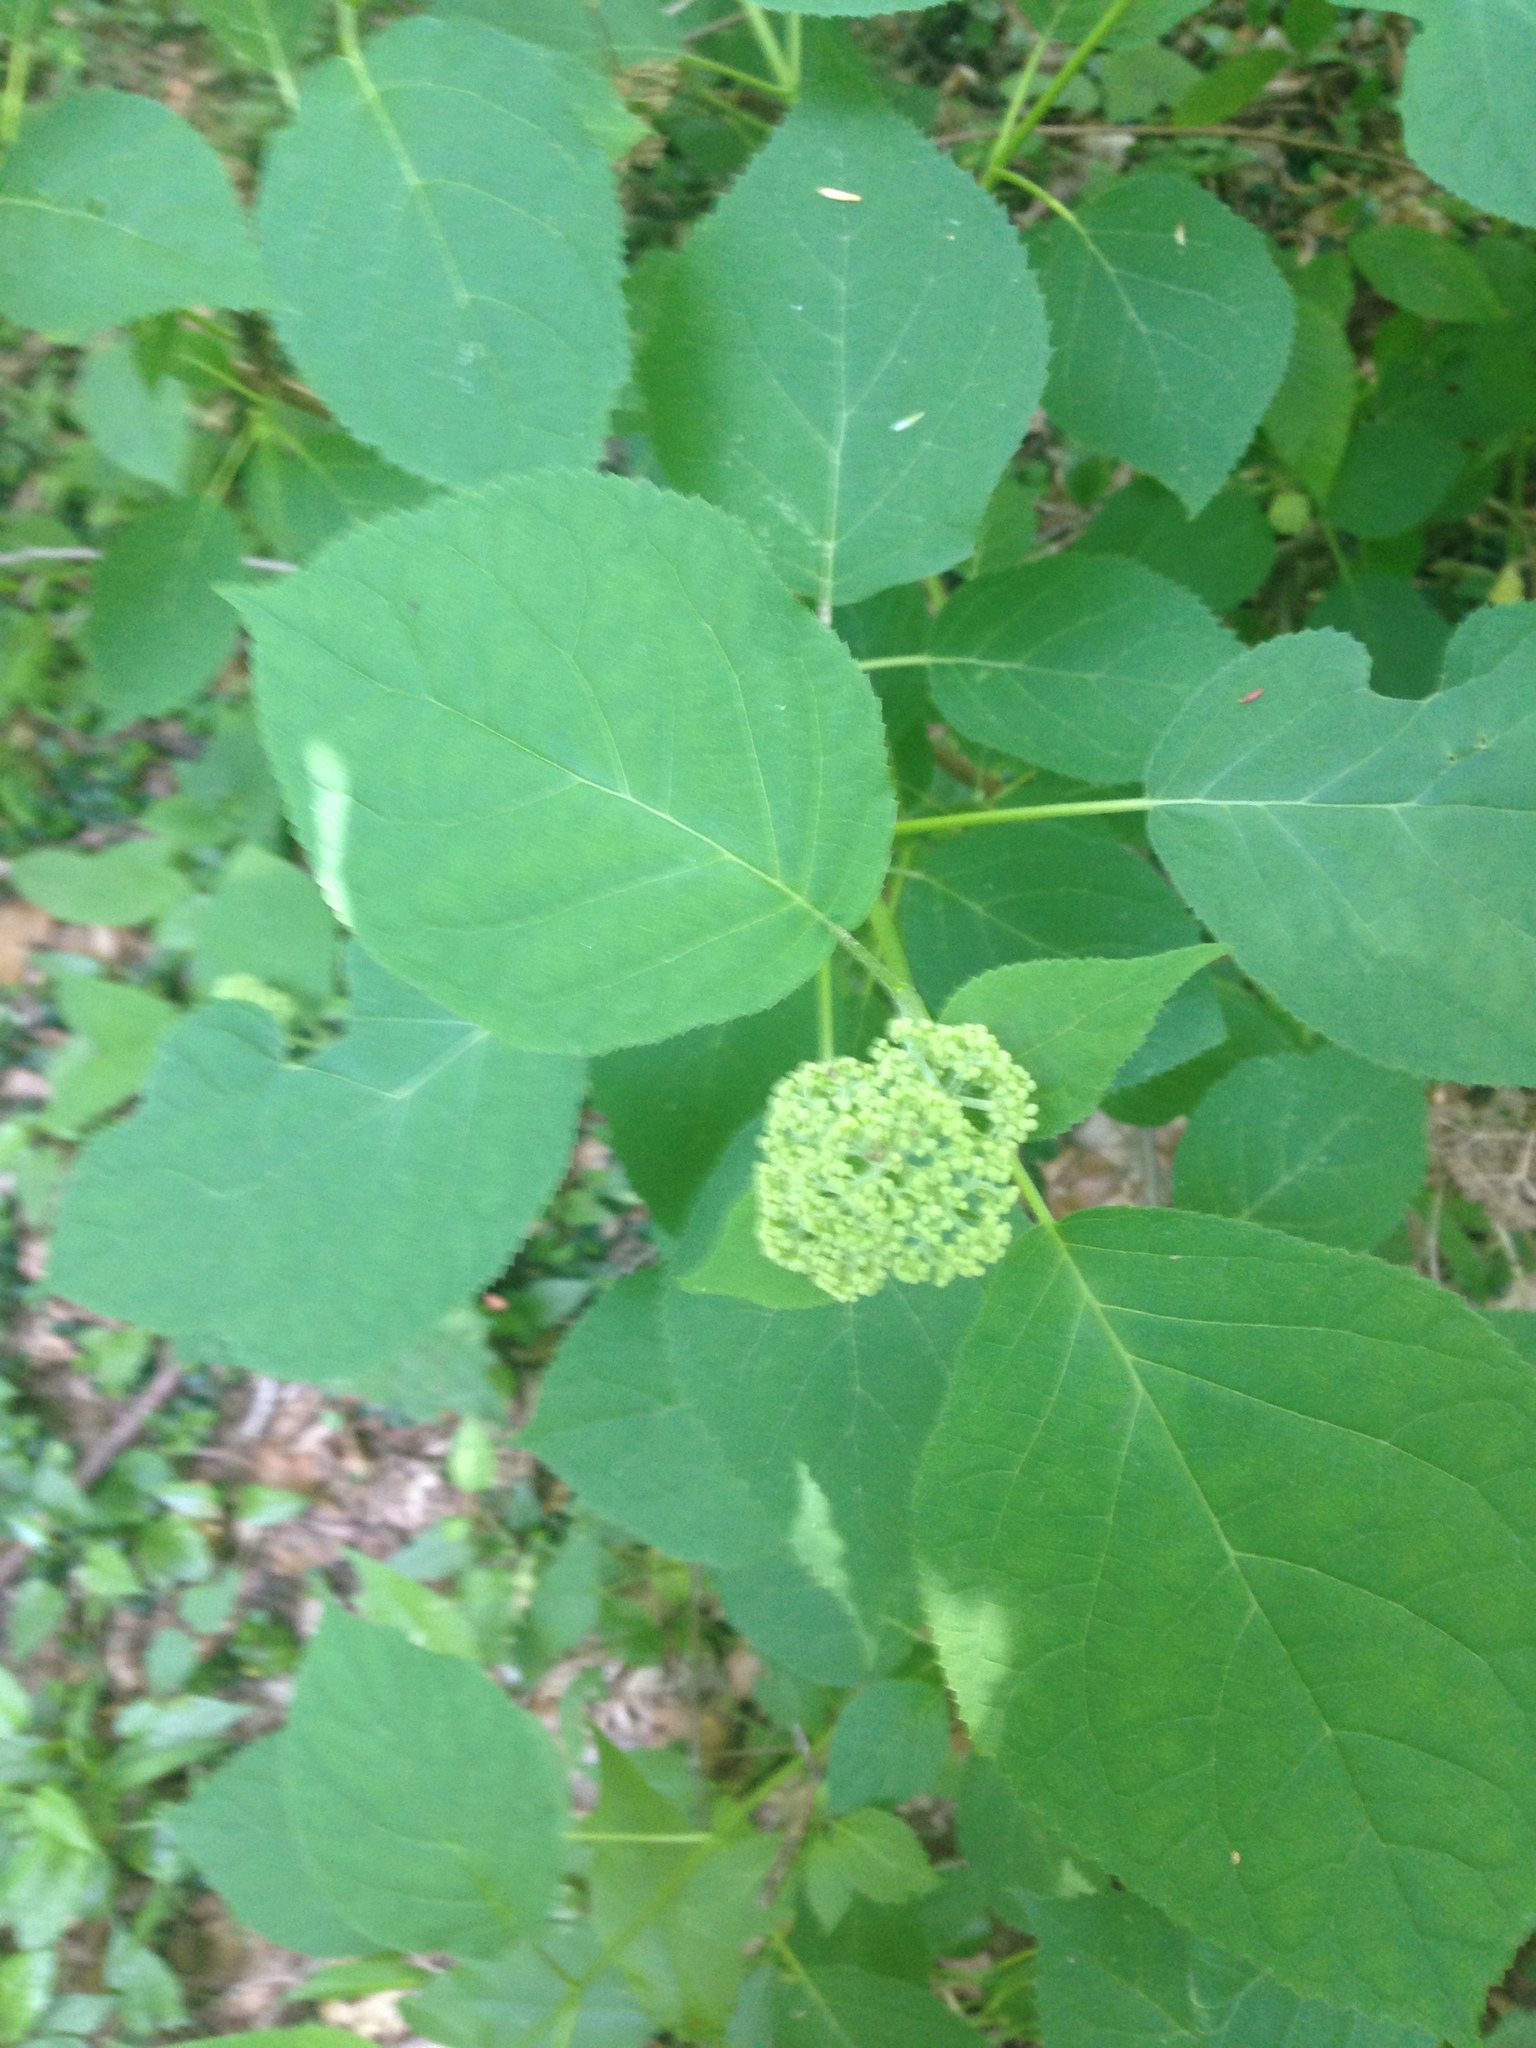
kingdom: Plantae
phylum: Tracheophyta
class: Magnoliopsida
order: Cornales
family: Hydrangeaceae
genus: Hydrangea
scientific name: Hydrangea arborescens
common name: Sevenbark
